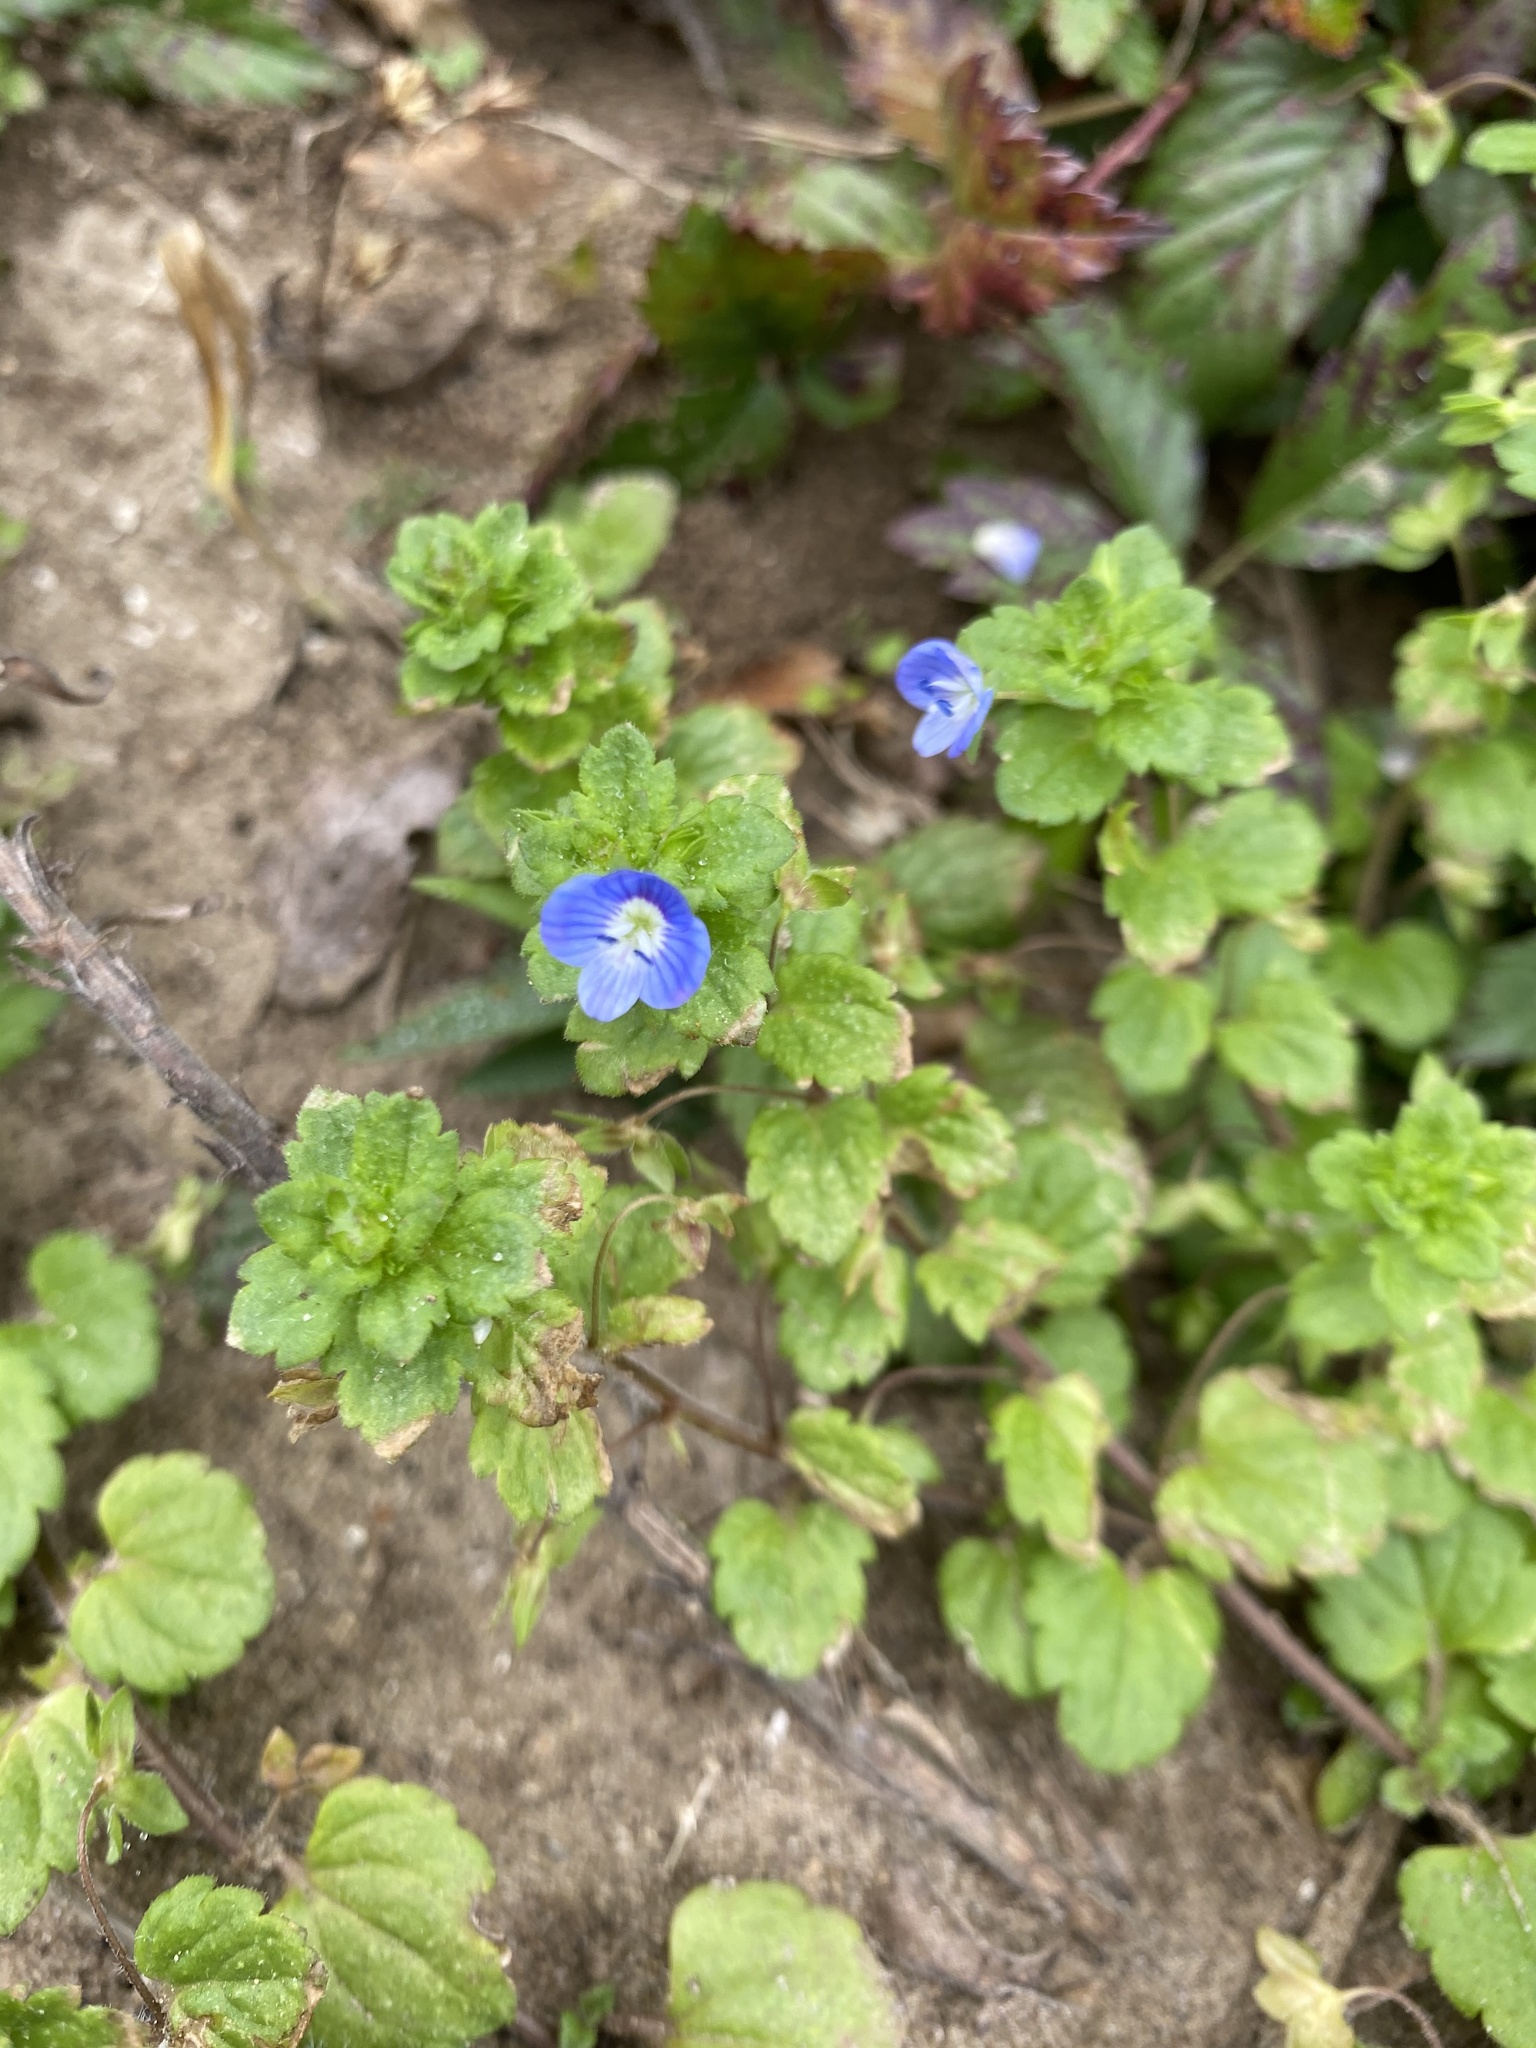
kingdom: Plantae
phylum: Tracheophyta
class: Magnoliopsida
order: Lamiales
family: Plantaginaceae
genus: Veronica
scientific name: Veronica persica
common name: Common field-speedwell
